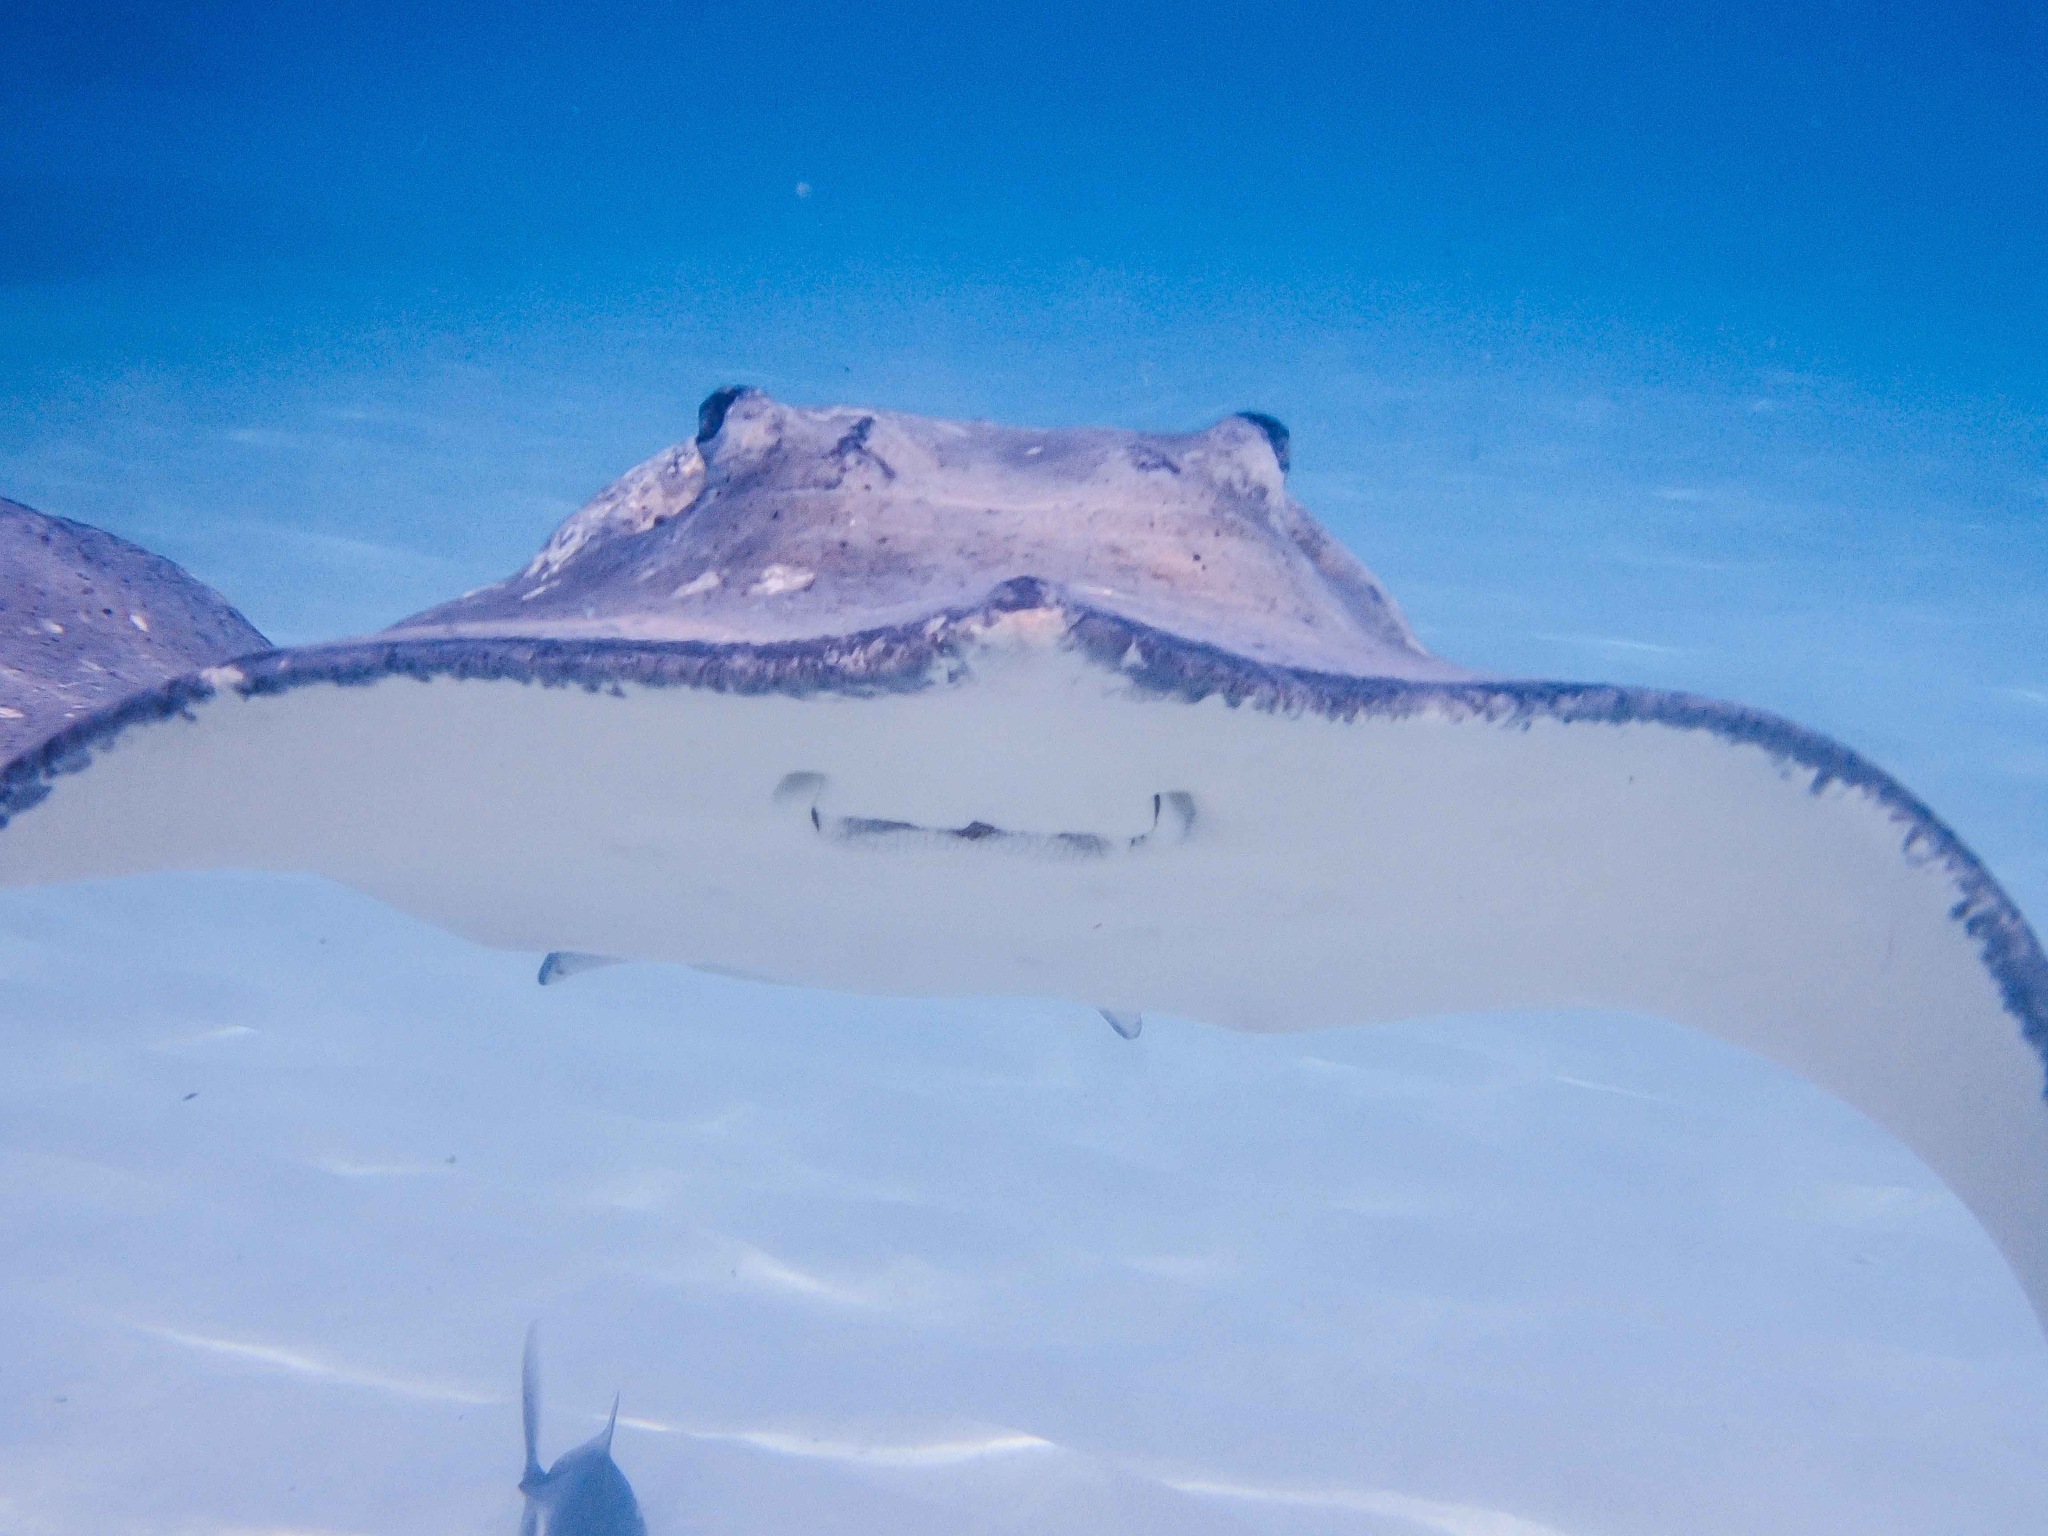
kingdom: Animalia
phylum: Chordata
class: Elasmobranchii
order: Myliobatiformes
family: Dasyatidae
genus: Hypanus
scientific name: Hypanus americanus
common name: Southern stingray
